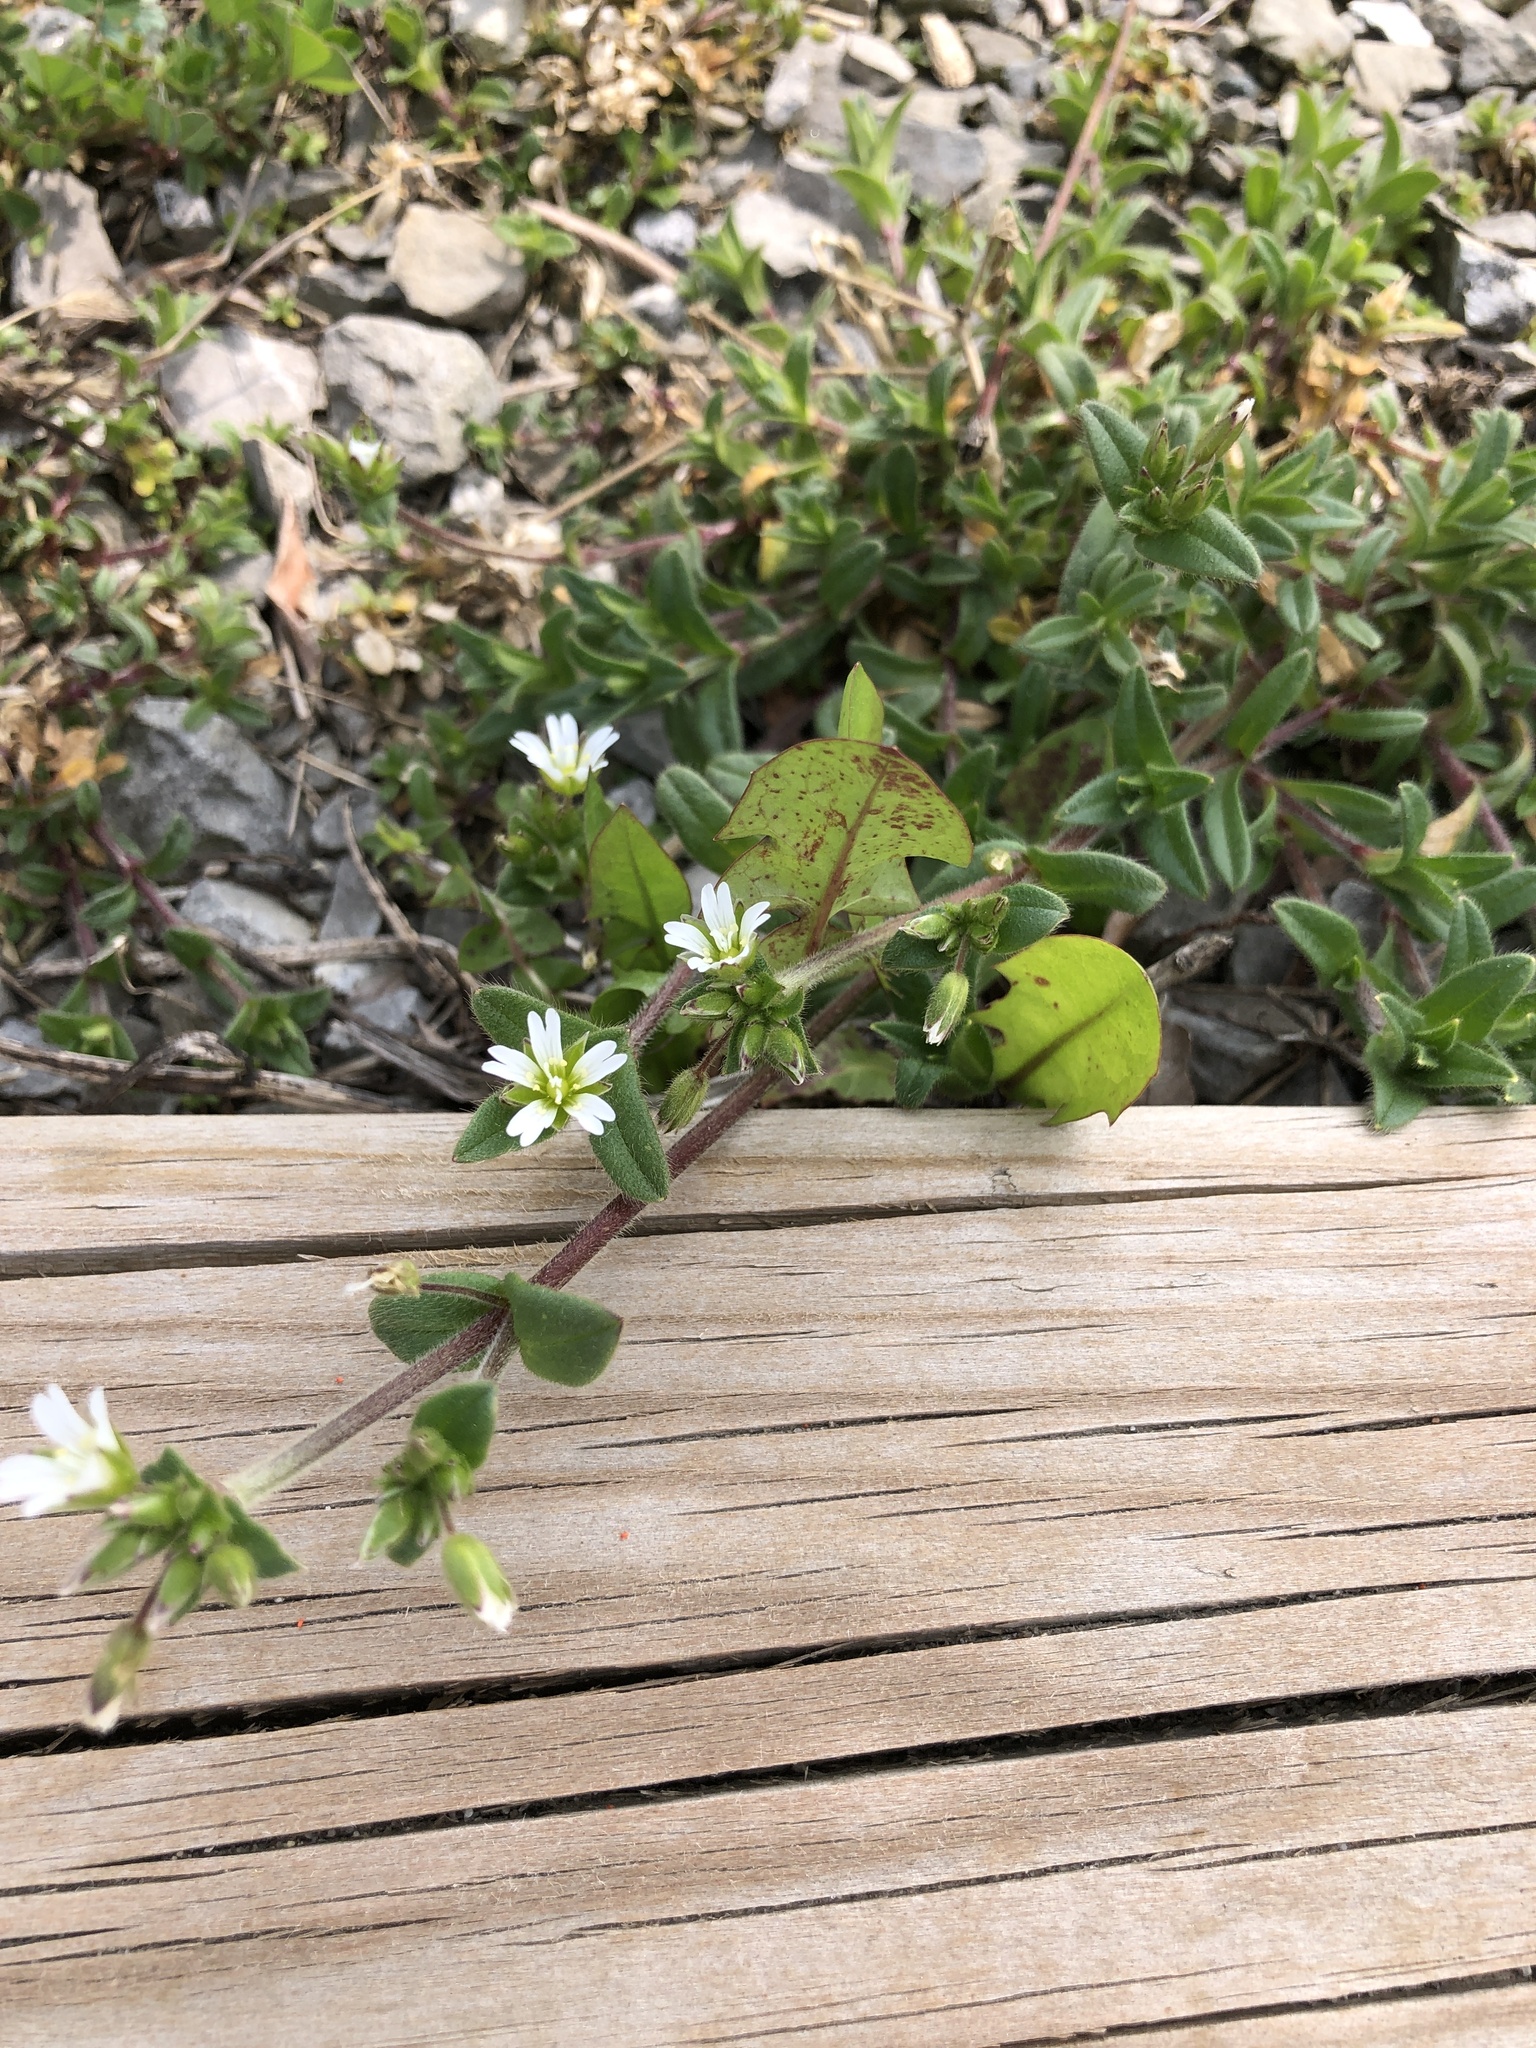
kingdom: Plantae
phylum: Tracheophyta
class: Magnoliopsida
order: Caryophyllales
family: Caryophyllaceae
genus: Cerastium
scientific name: Cerastium fontanum
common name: Common mouse-ear
